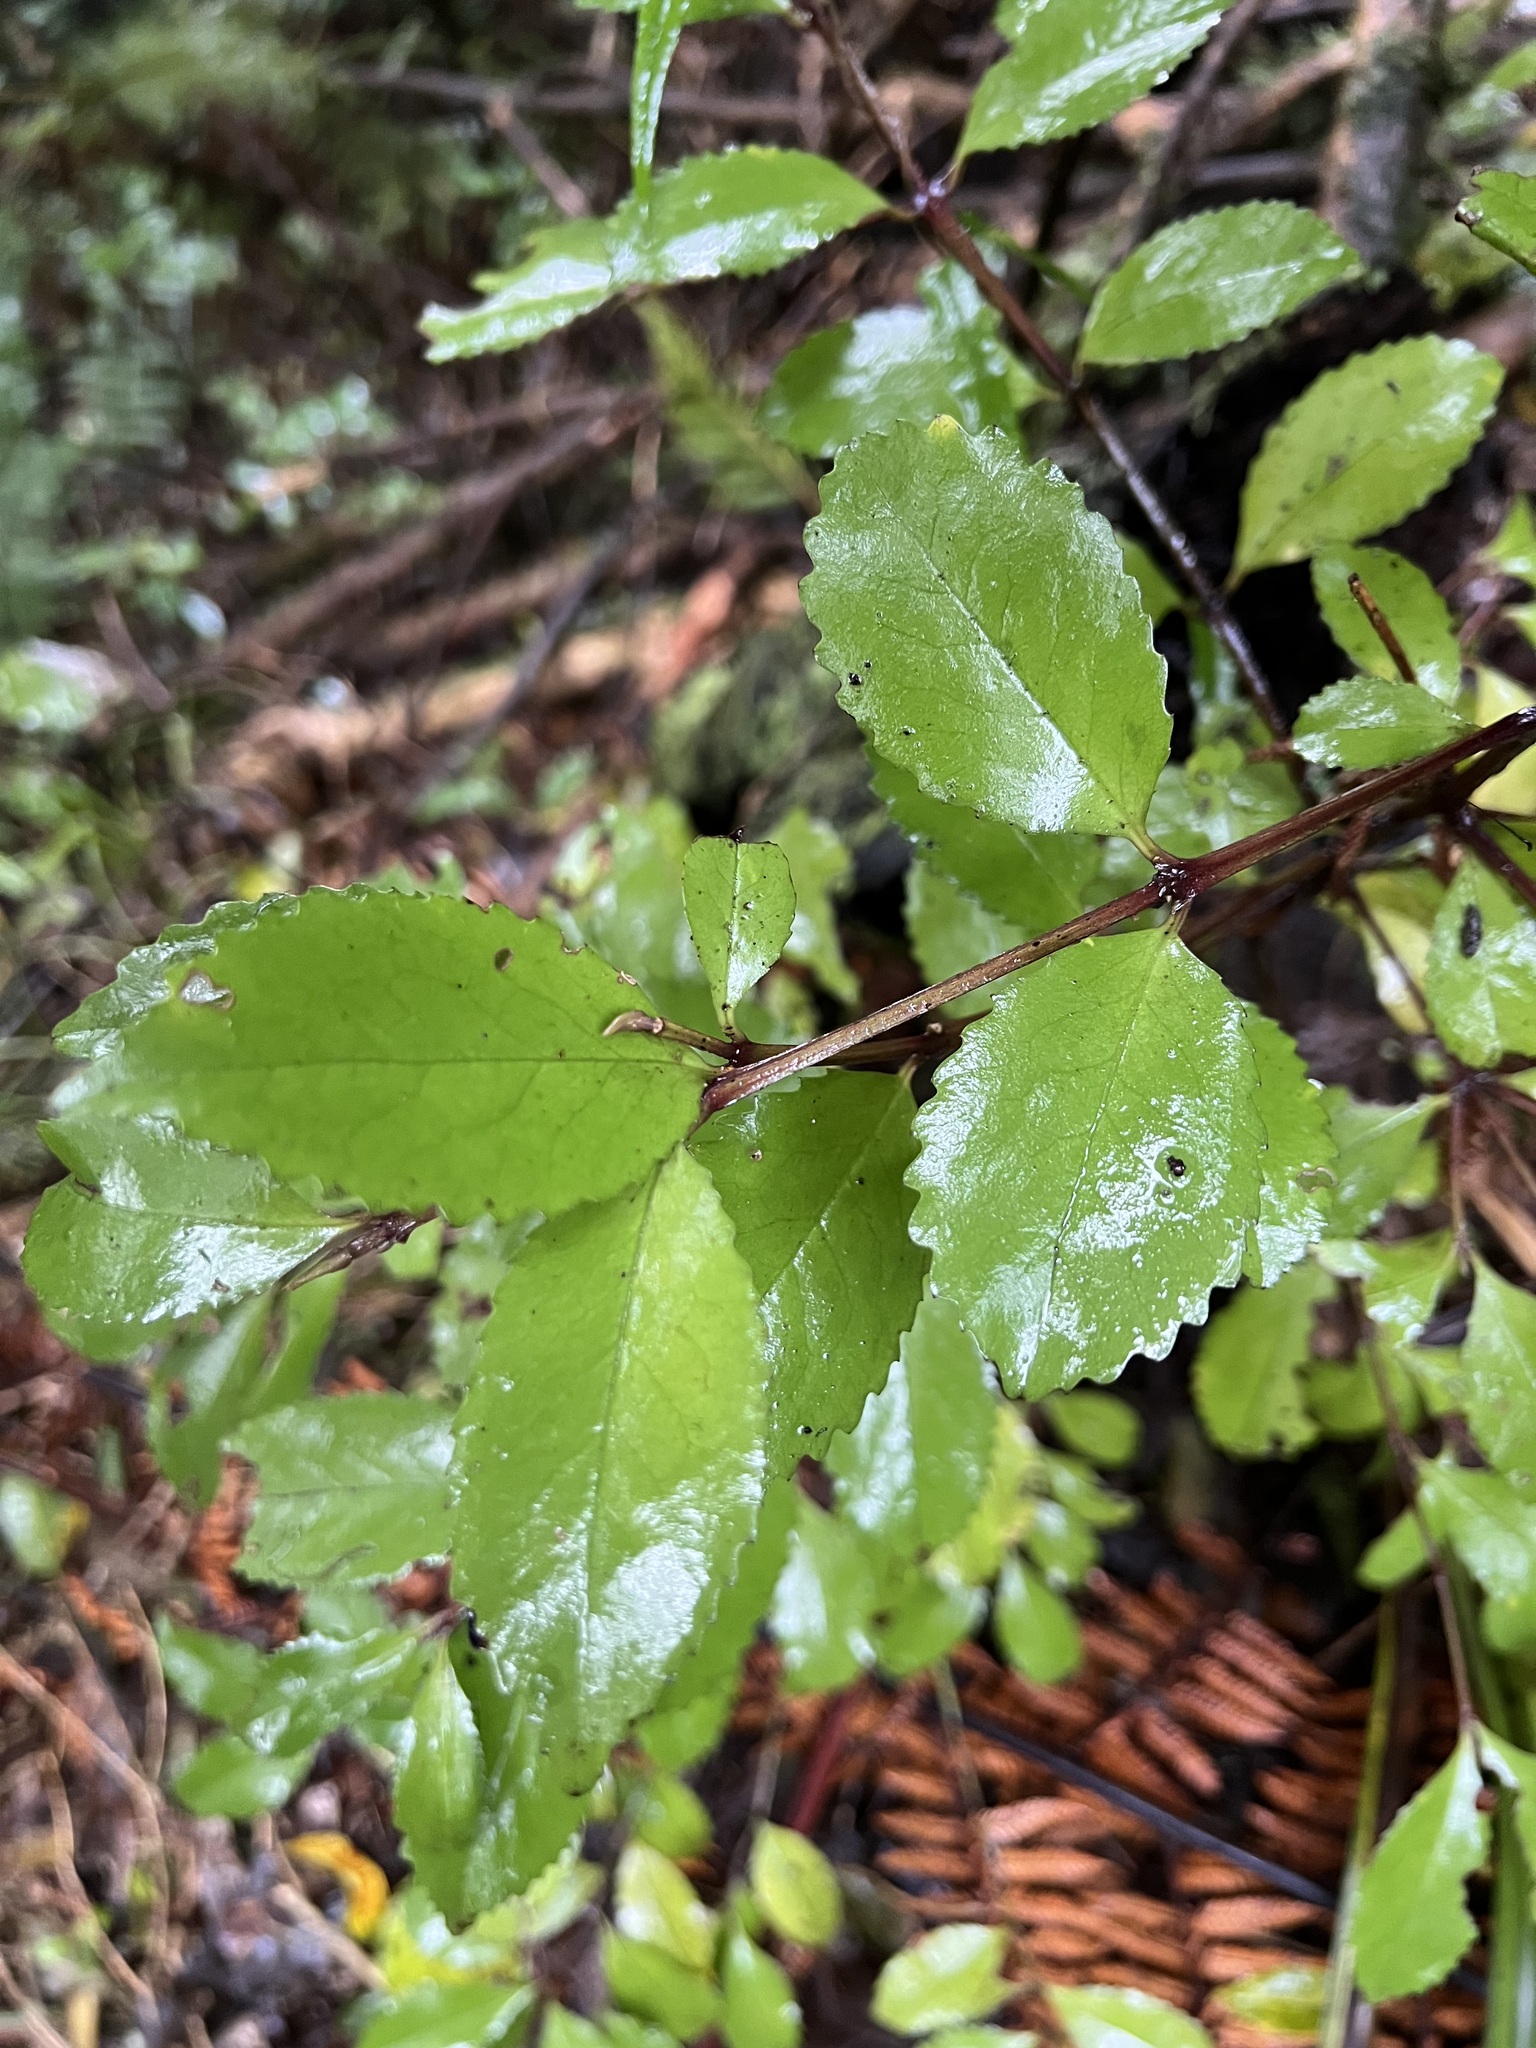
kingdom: Plantae
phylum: Tracheophyta
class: Magnoliopsida
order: Laurales
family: Atherospermataceae
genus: Laurelia
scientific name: Laurelia novae-zelandiae
